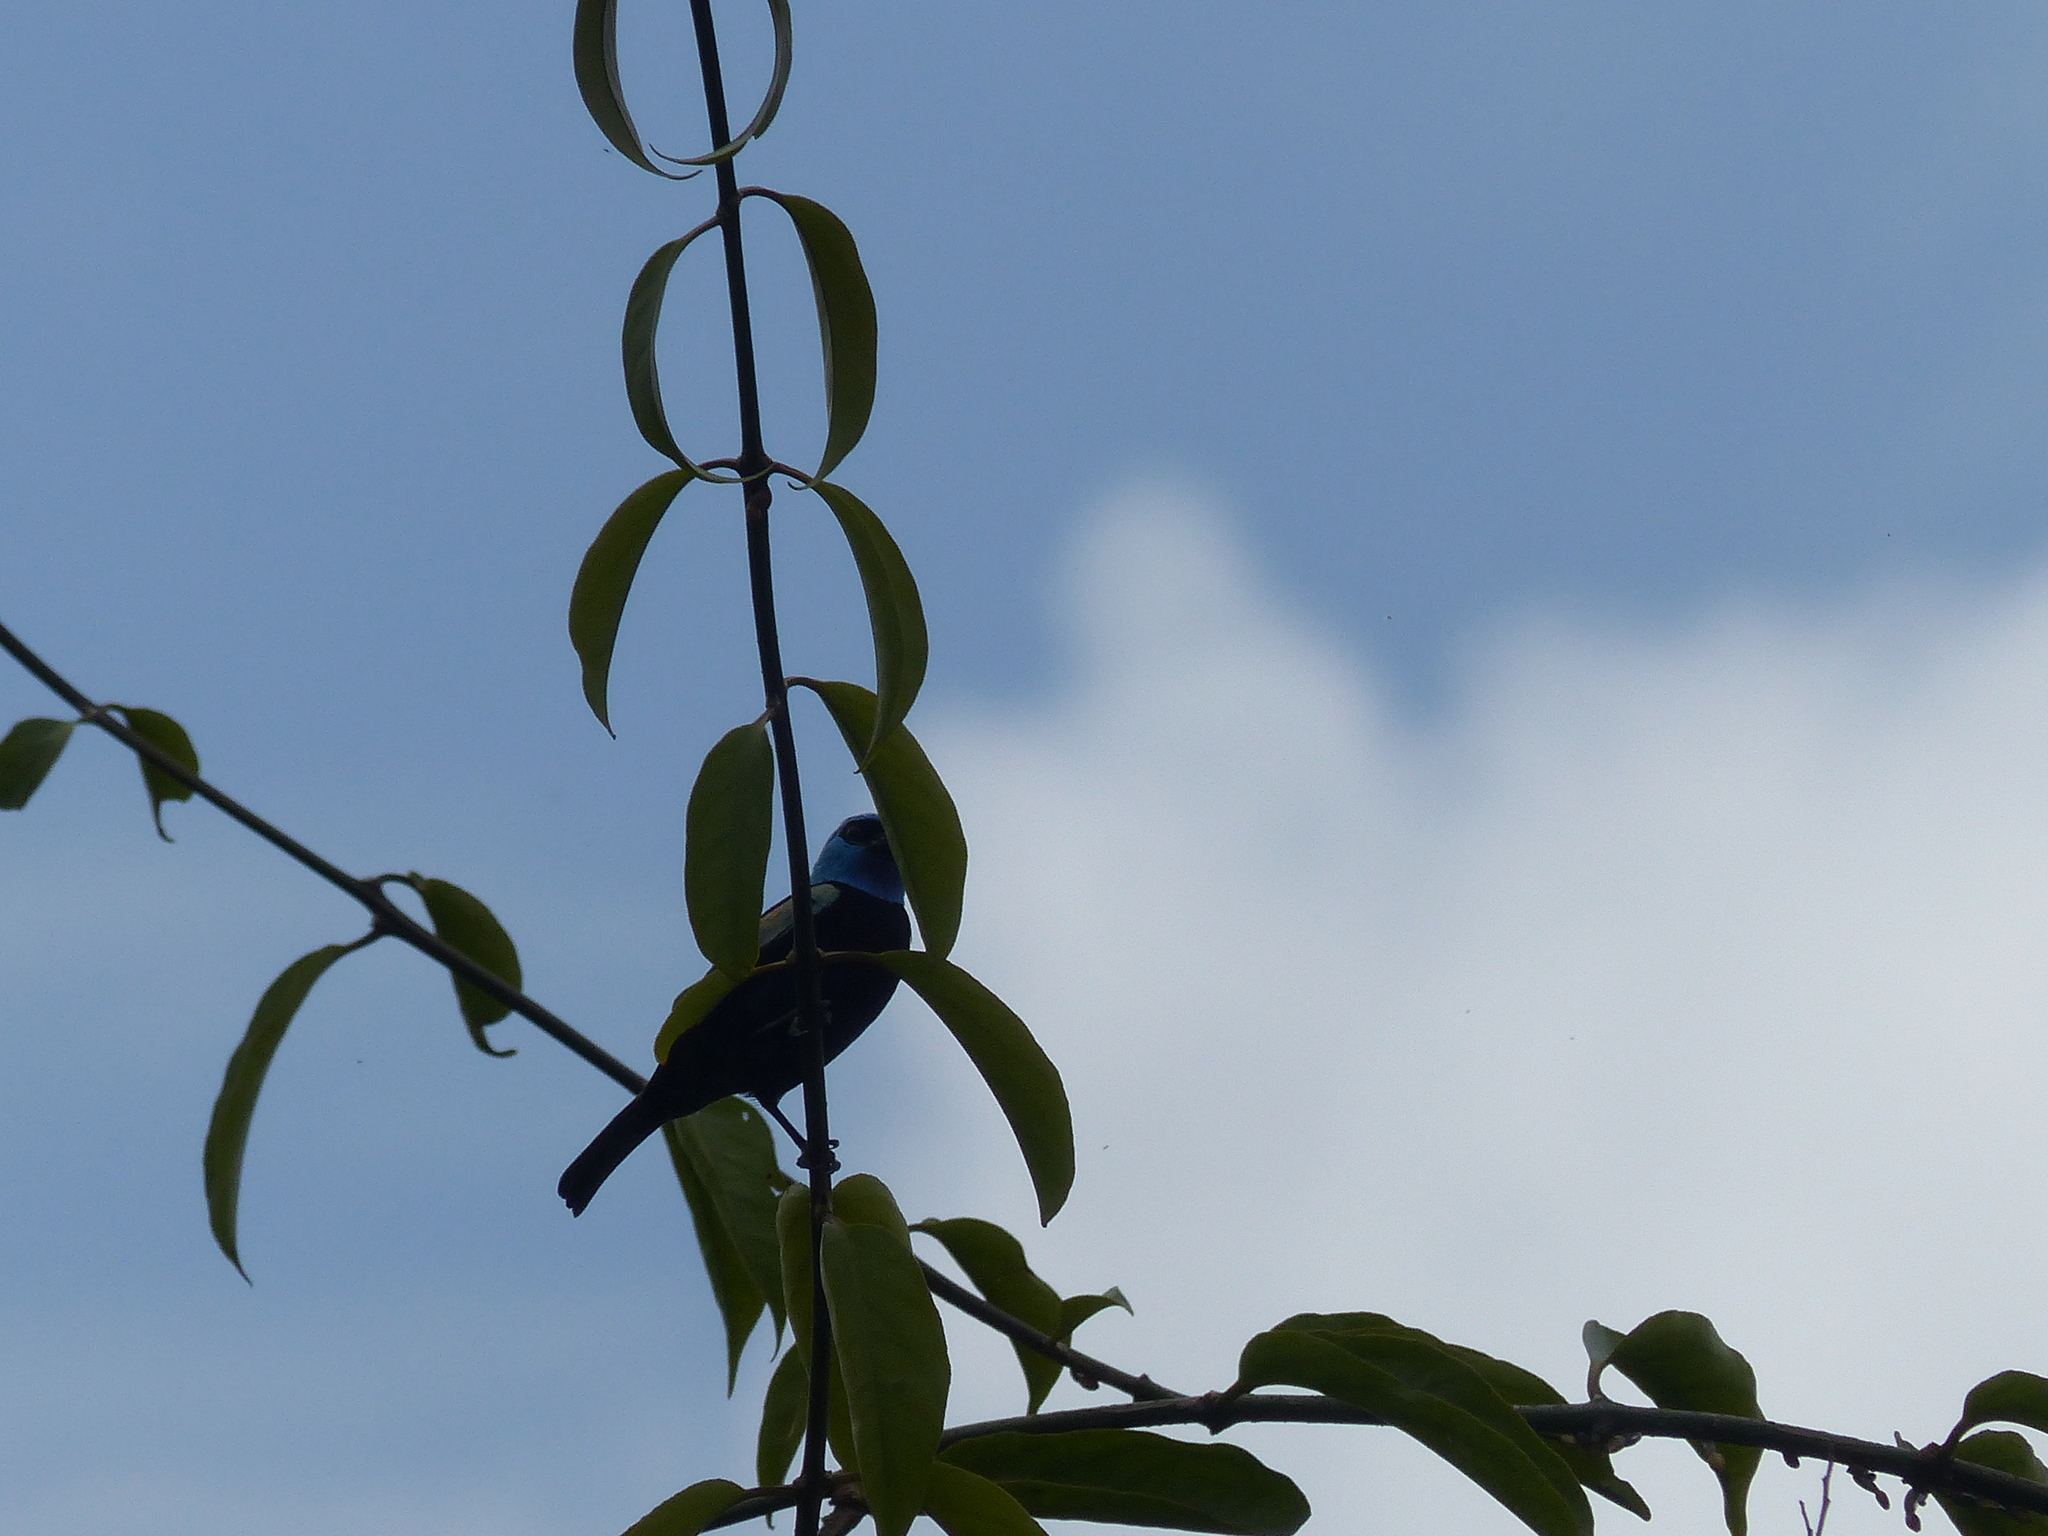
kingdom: Animalia
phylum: Chordata
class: Aves
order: Passeriformes
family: Thraupidae
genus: Stilpnia
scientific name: Stilpnia cyanicollis
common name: Blue-necked tanager
